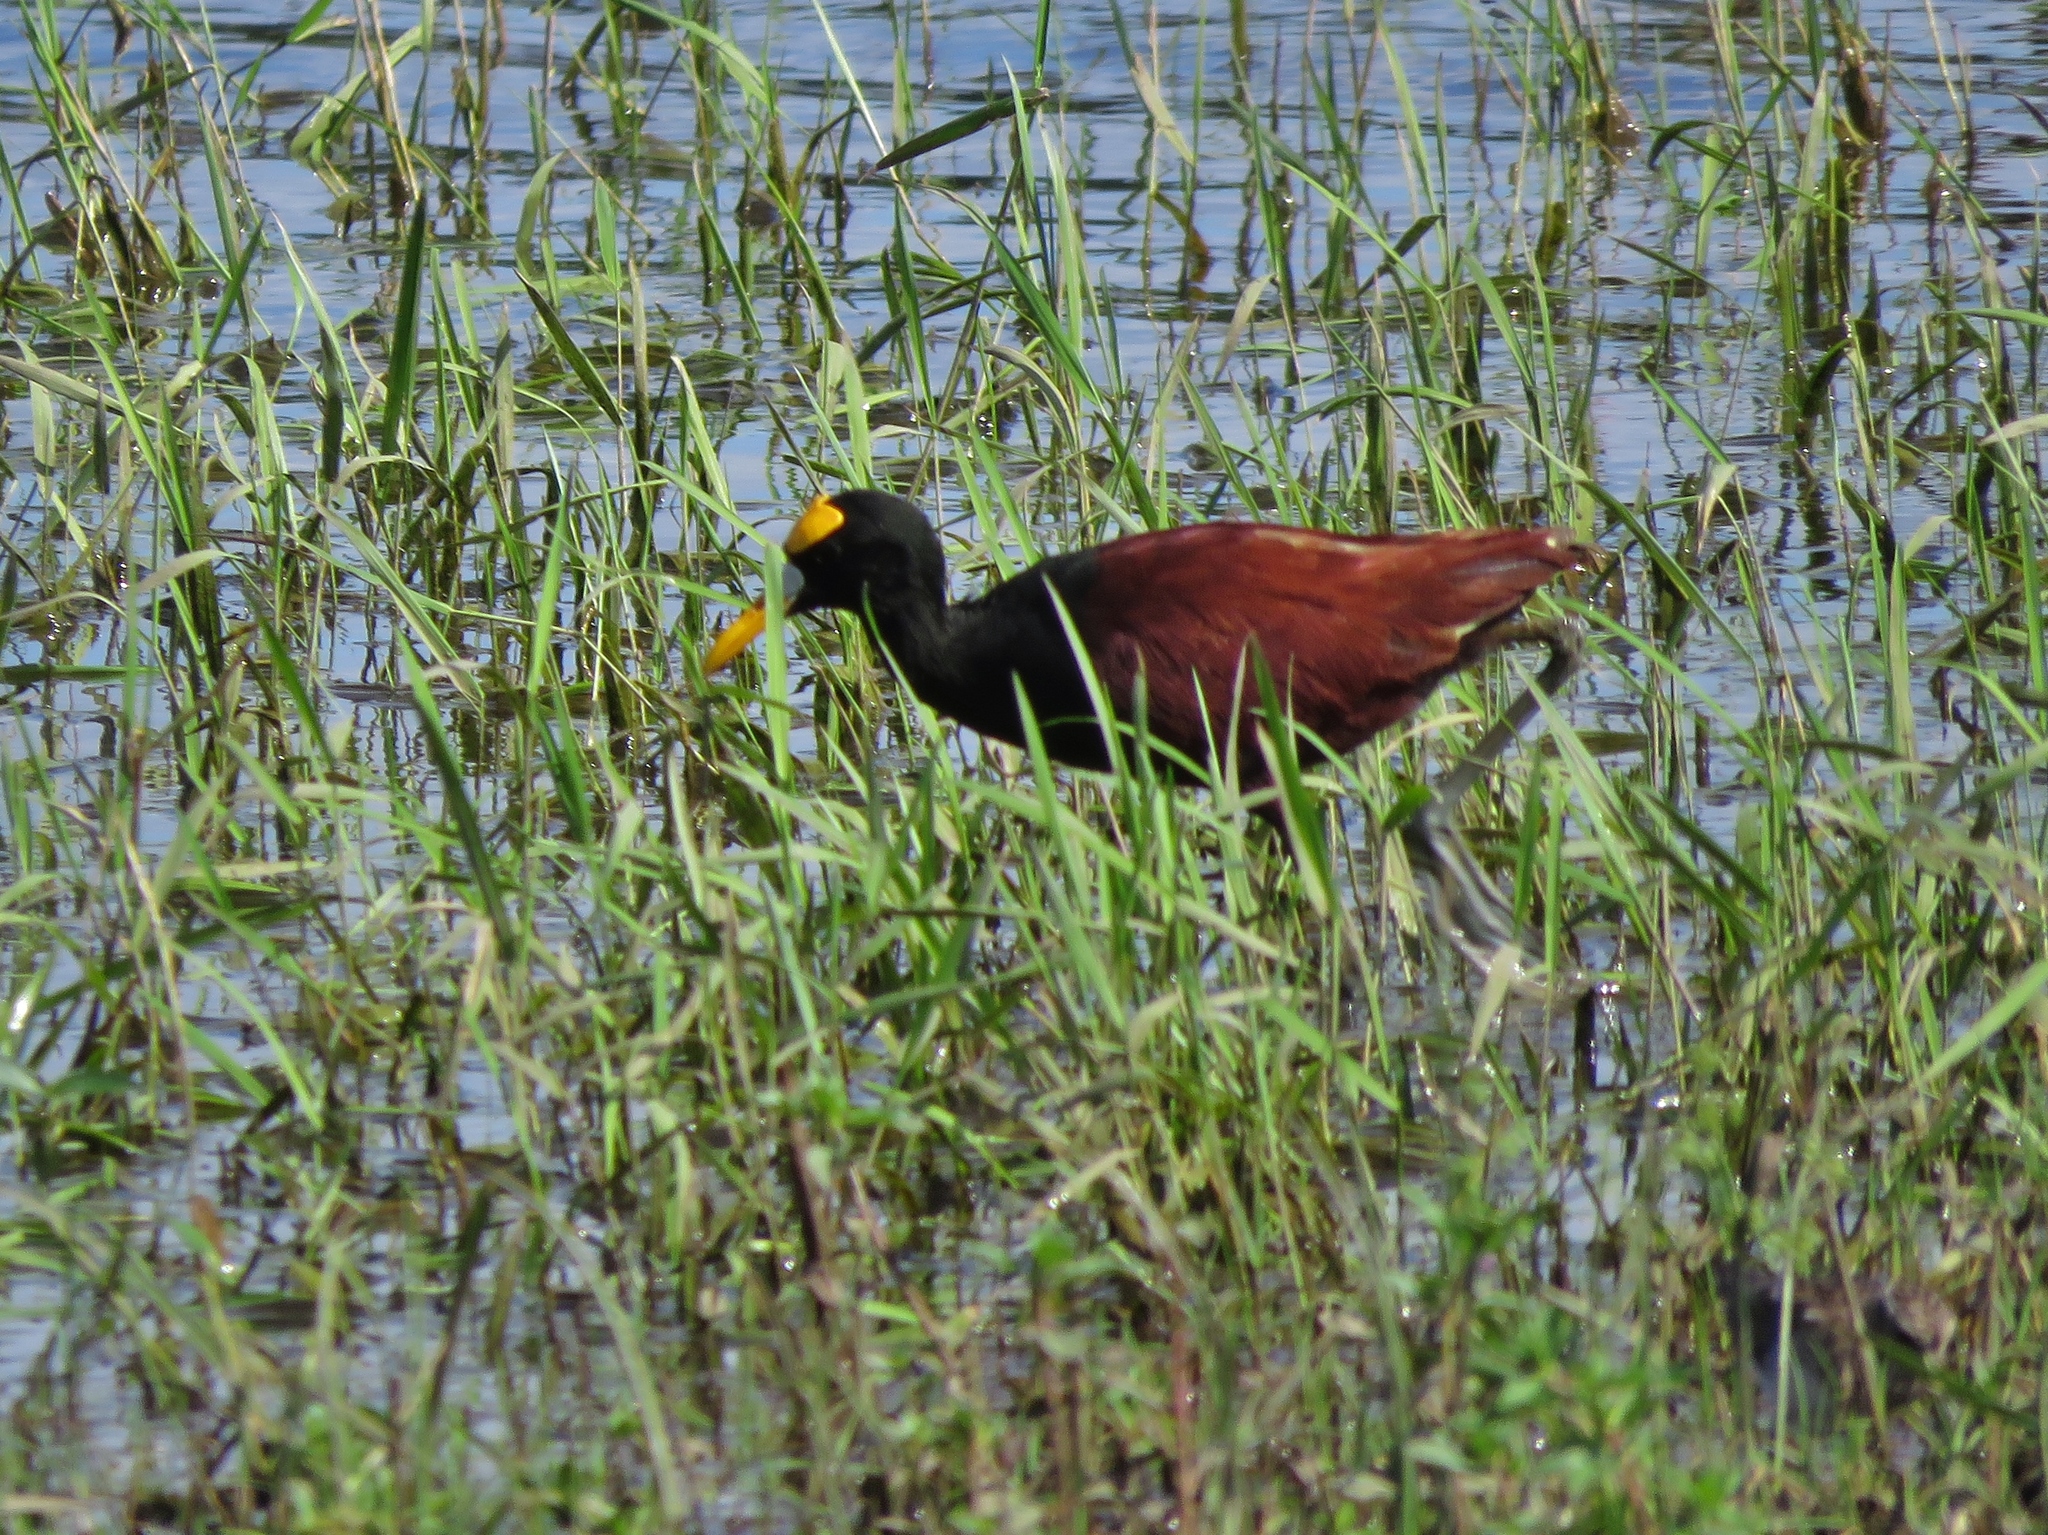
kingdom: Animalia
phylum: Chordata
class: Aves
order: Charadriiformes
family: Jacanidae
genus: Jacana
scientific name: Jacana spinosa
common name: Northern jacana
